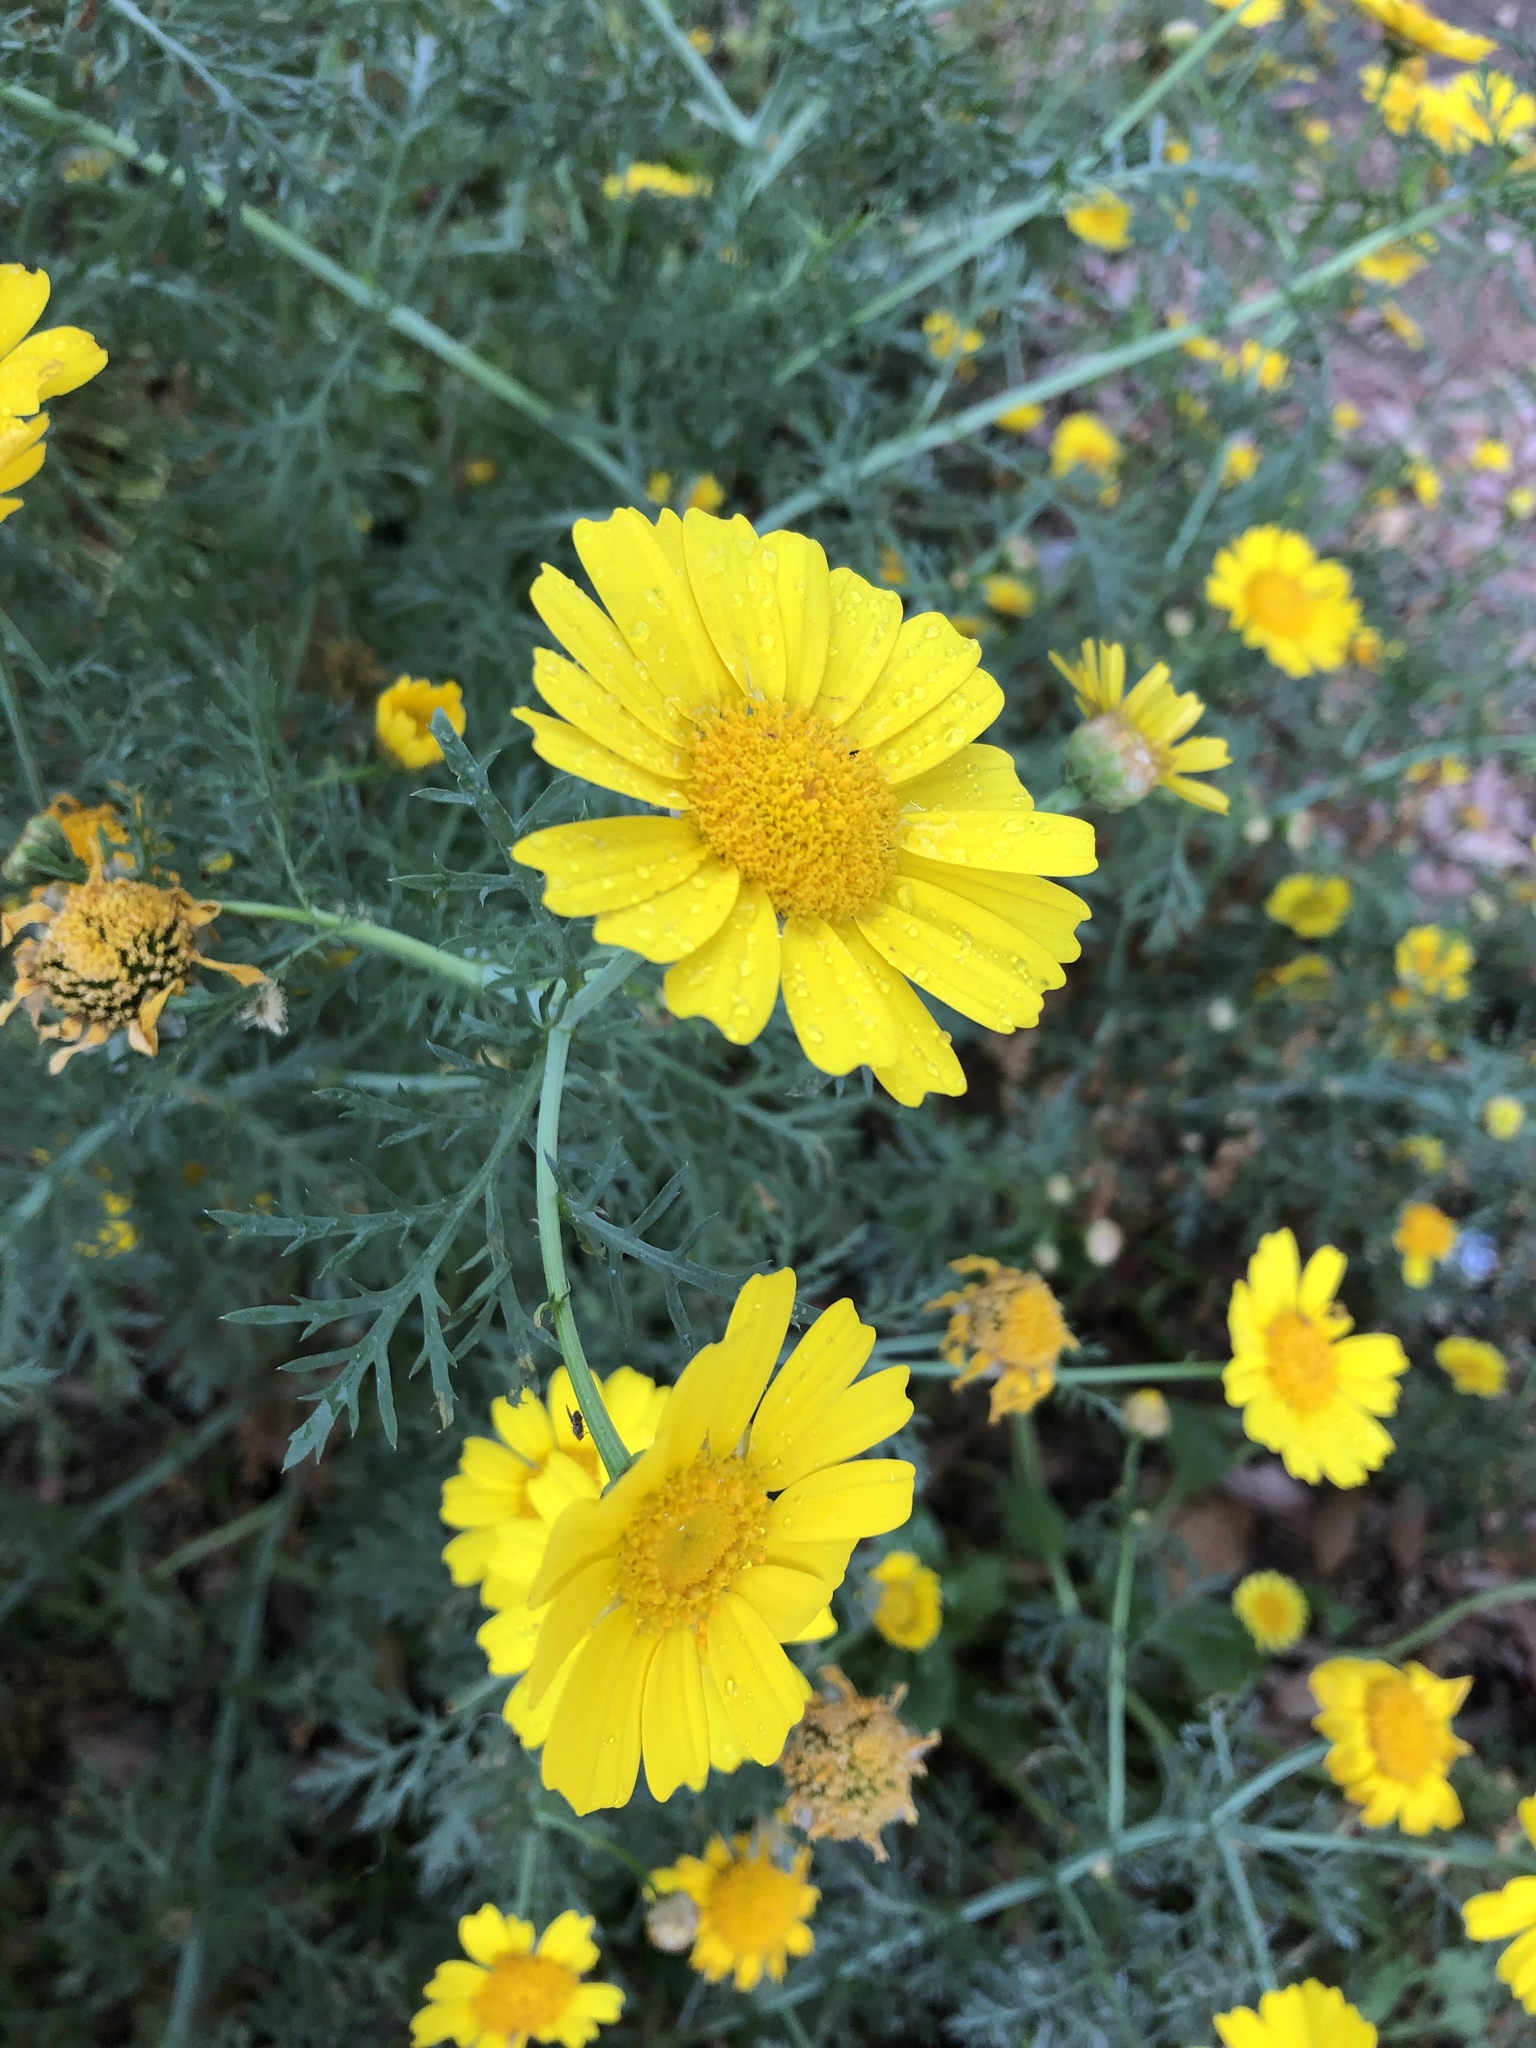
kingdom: Plantae
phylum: Tracheophyta
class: Magnoliopsida
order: Asterales
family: Asteraceae
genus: Glebionis
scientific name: Glebionis coronaria
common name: Crowndaisy
